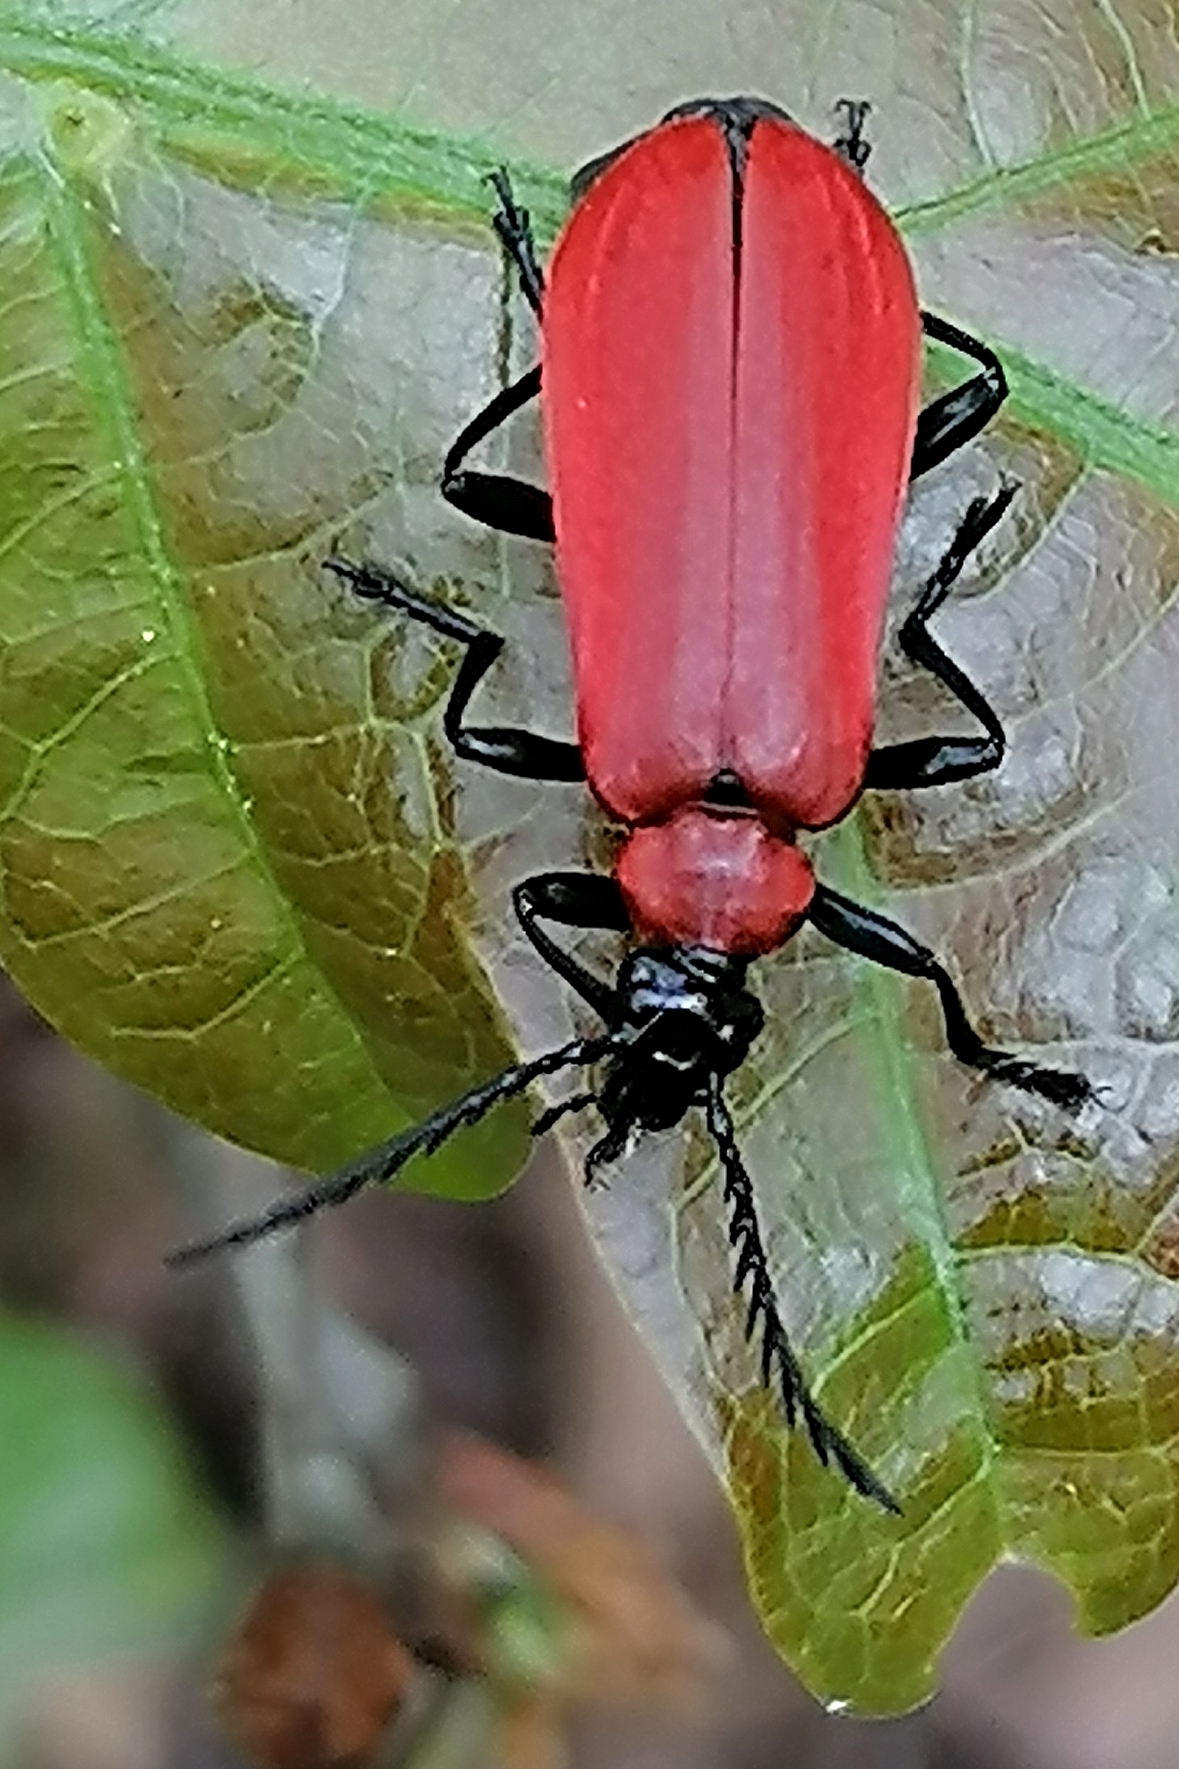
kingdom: Animalia
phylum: Arthropoda
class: Insecta
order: Coleoptera
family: Pyrochroidae
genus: Pyrochroa
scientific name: Pyrochroa coccinea
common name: Black-headed cardinal beetle
